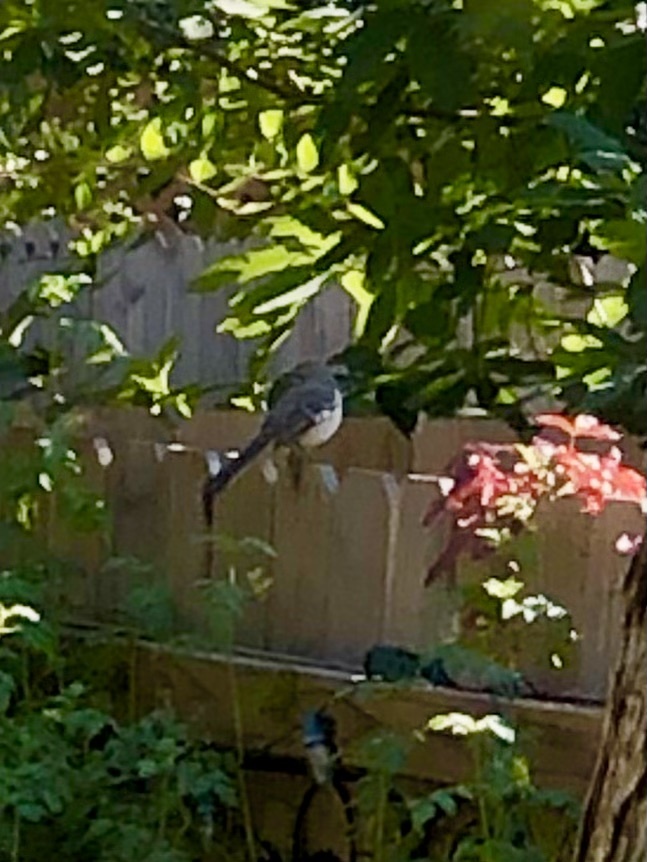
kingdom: Animalia
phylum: Chordata
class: Aves
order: Passeriformes
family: Mimidae
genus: Mimus
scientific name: Mimus polyglottos
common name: Northern mockingbird
